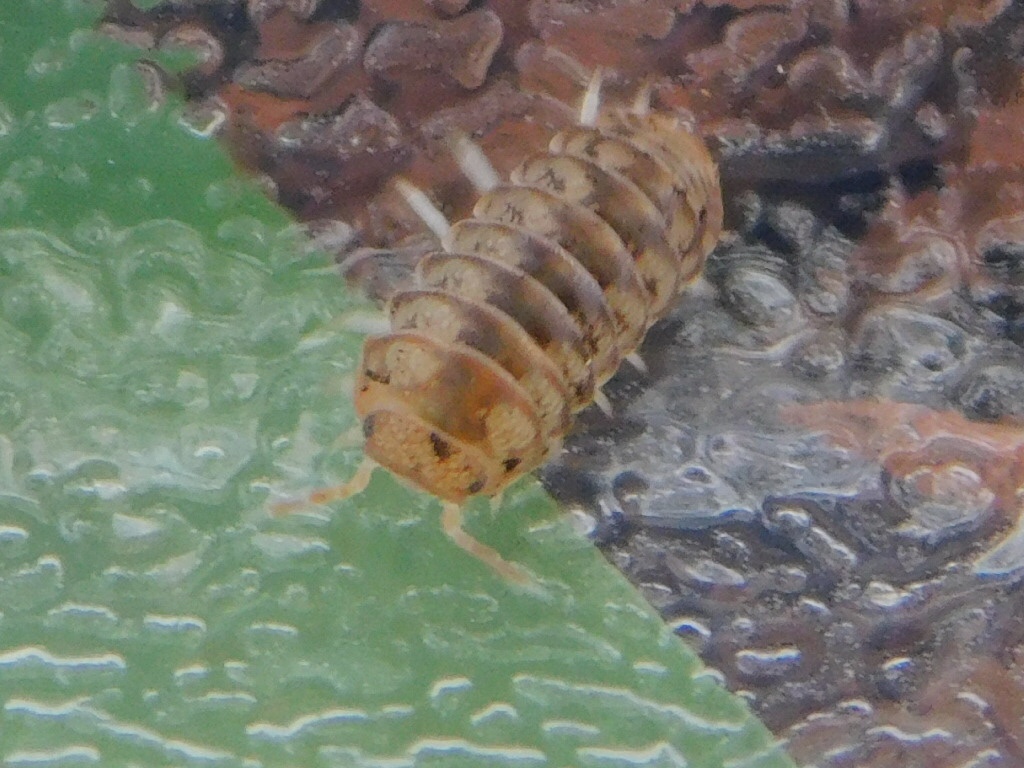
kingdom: Animalia
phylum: Arthropoda
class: Malacostraca
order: Isopoda
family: Armadillidae
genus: Venezillo
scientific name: Venezillo parvus
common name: Pillbug
